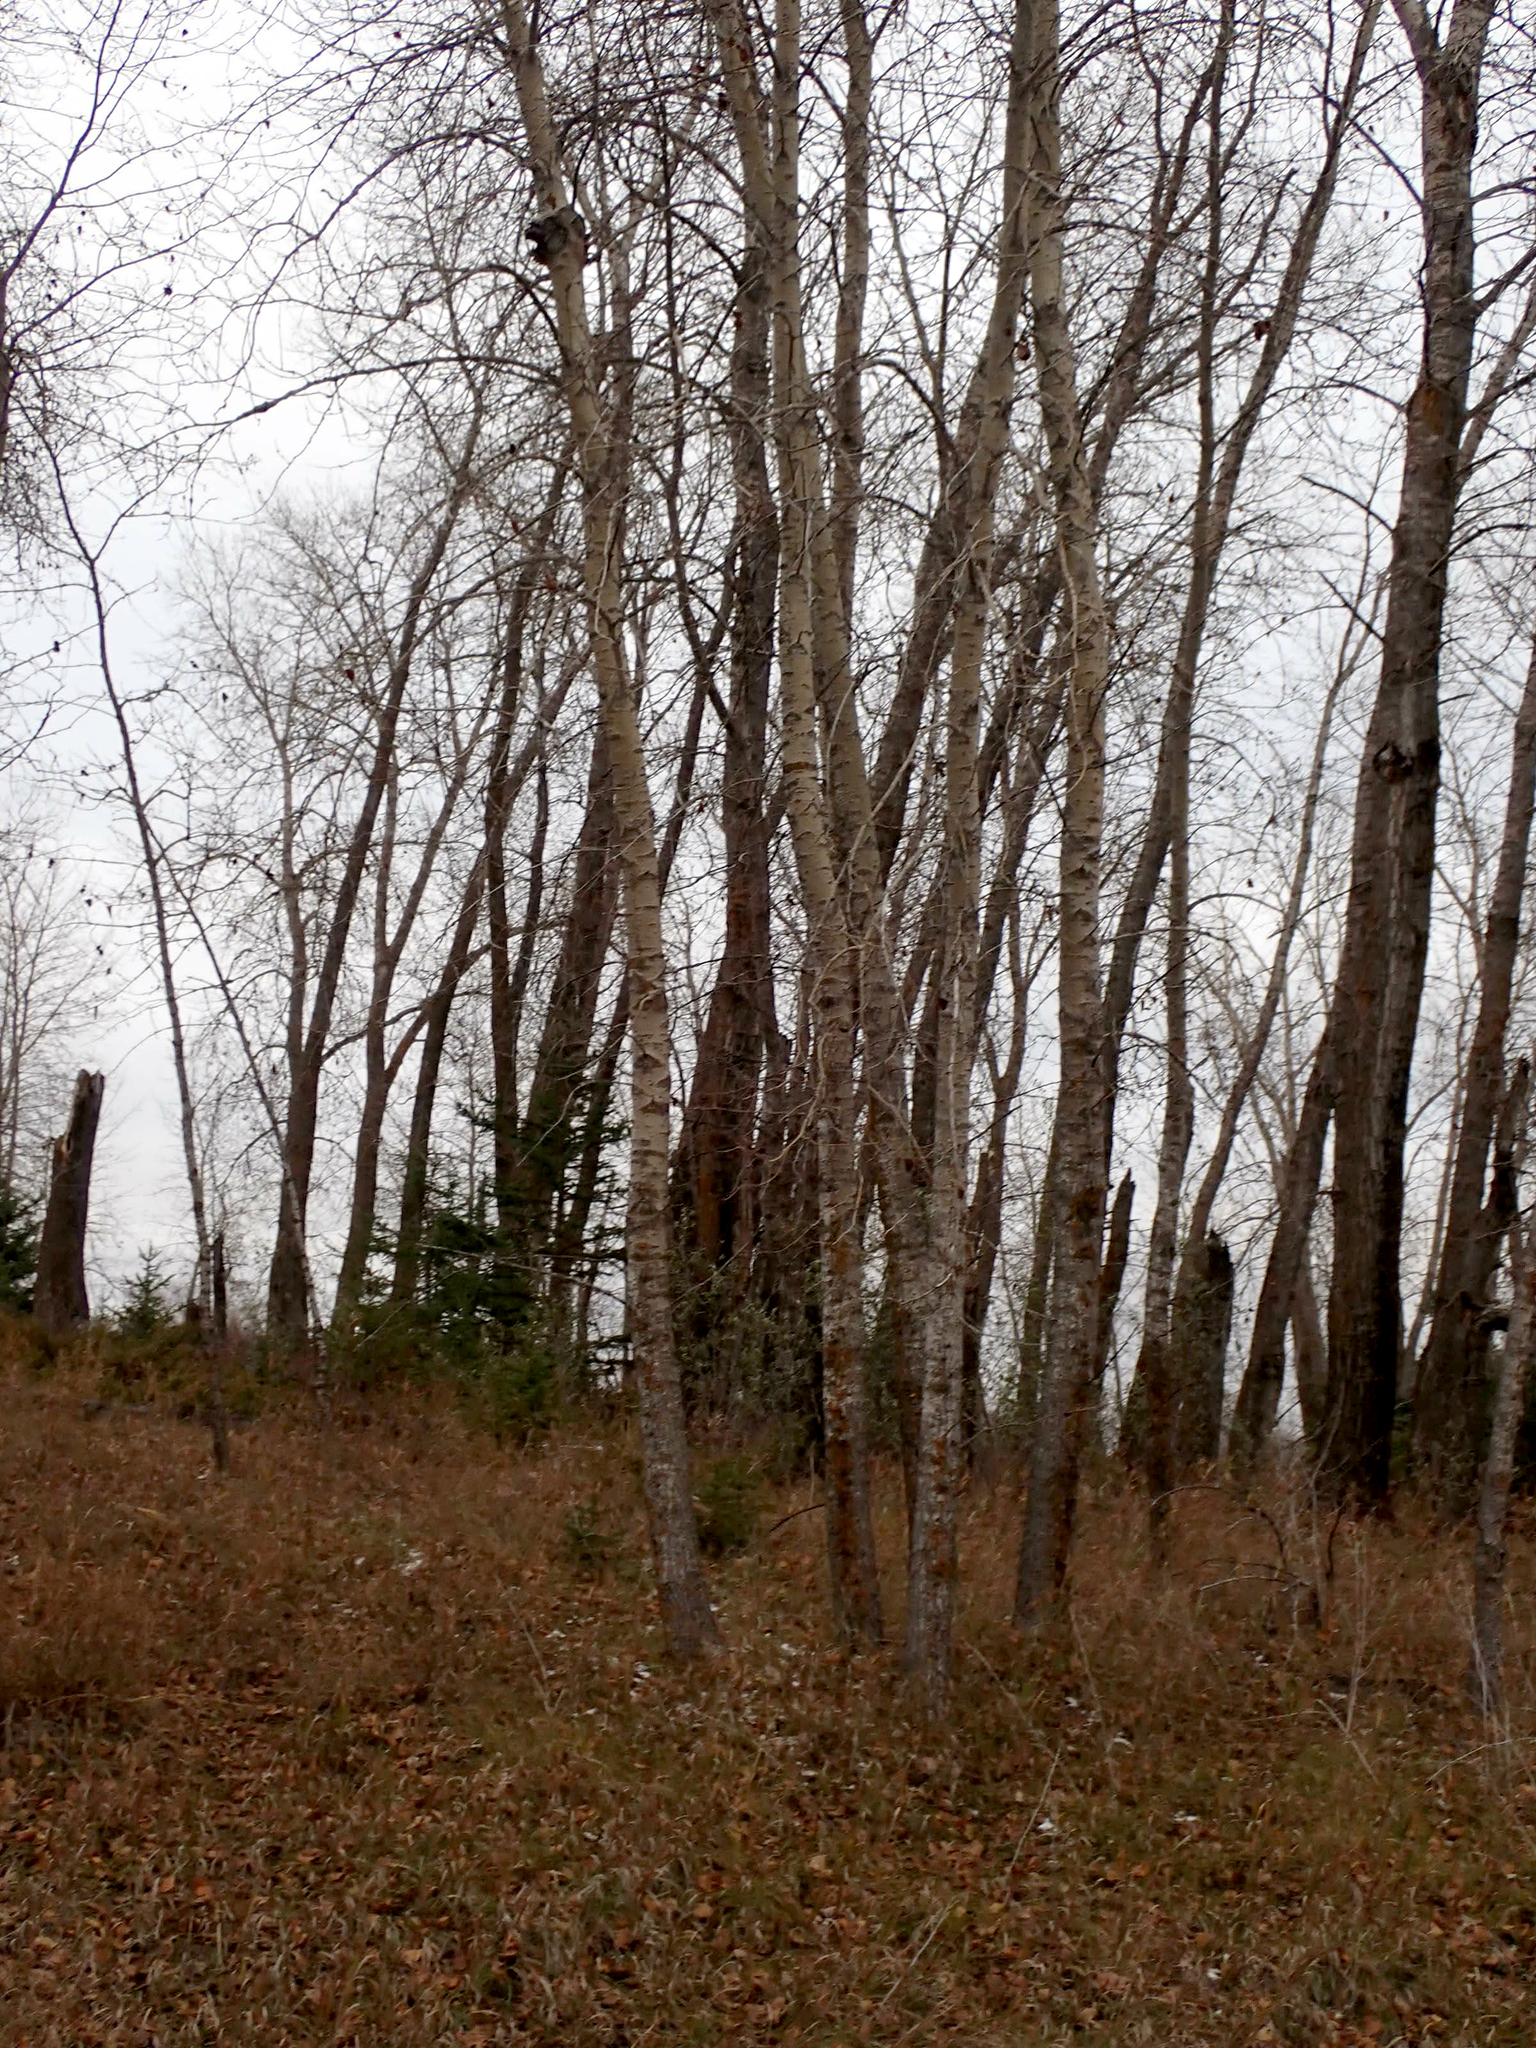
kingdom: Plantae
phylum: Tracheophyta
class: Magnoliopsida
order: Malpighiales
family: Salicaceae
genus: Populus
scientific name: Populus balsamifera
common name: Balsam poplar
